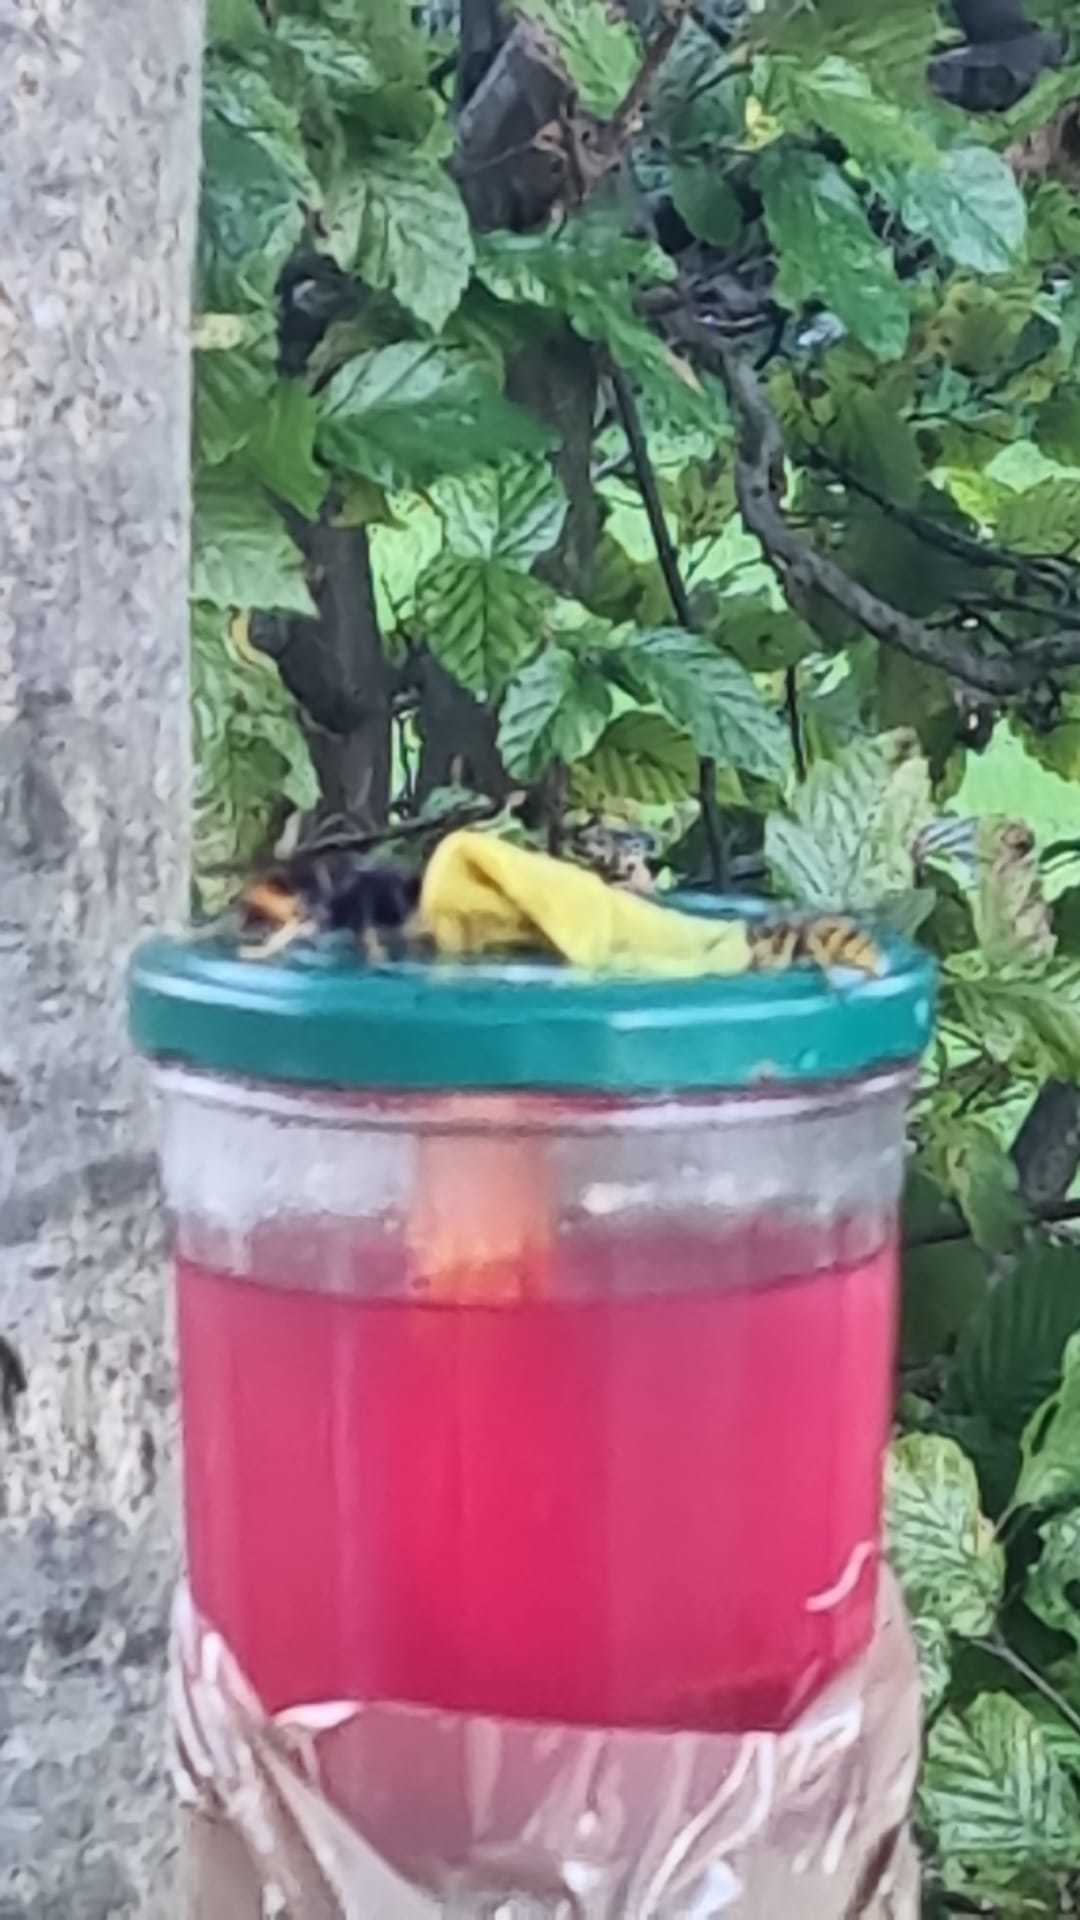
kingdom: Animalia
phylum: Arthropoda
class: Insecta
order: Hymenoptera
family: Vespidae
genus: Vespa
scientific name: Vespa velutina
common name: Asian hornet
